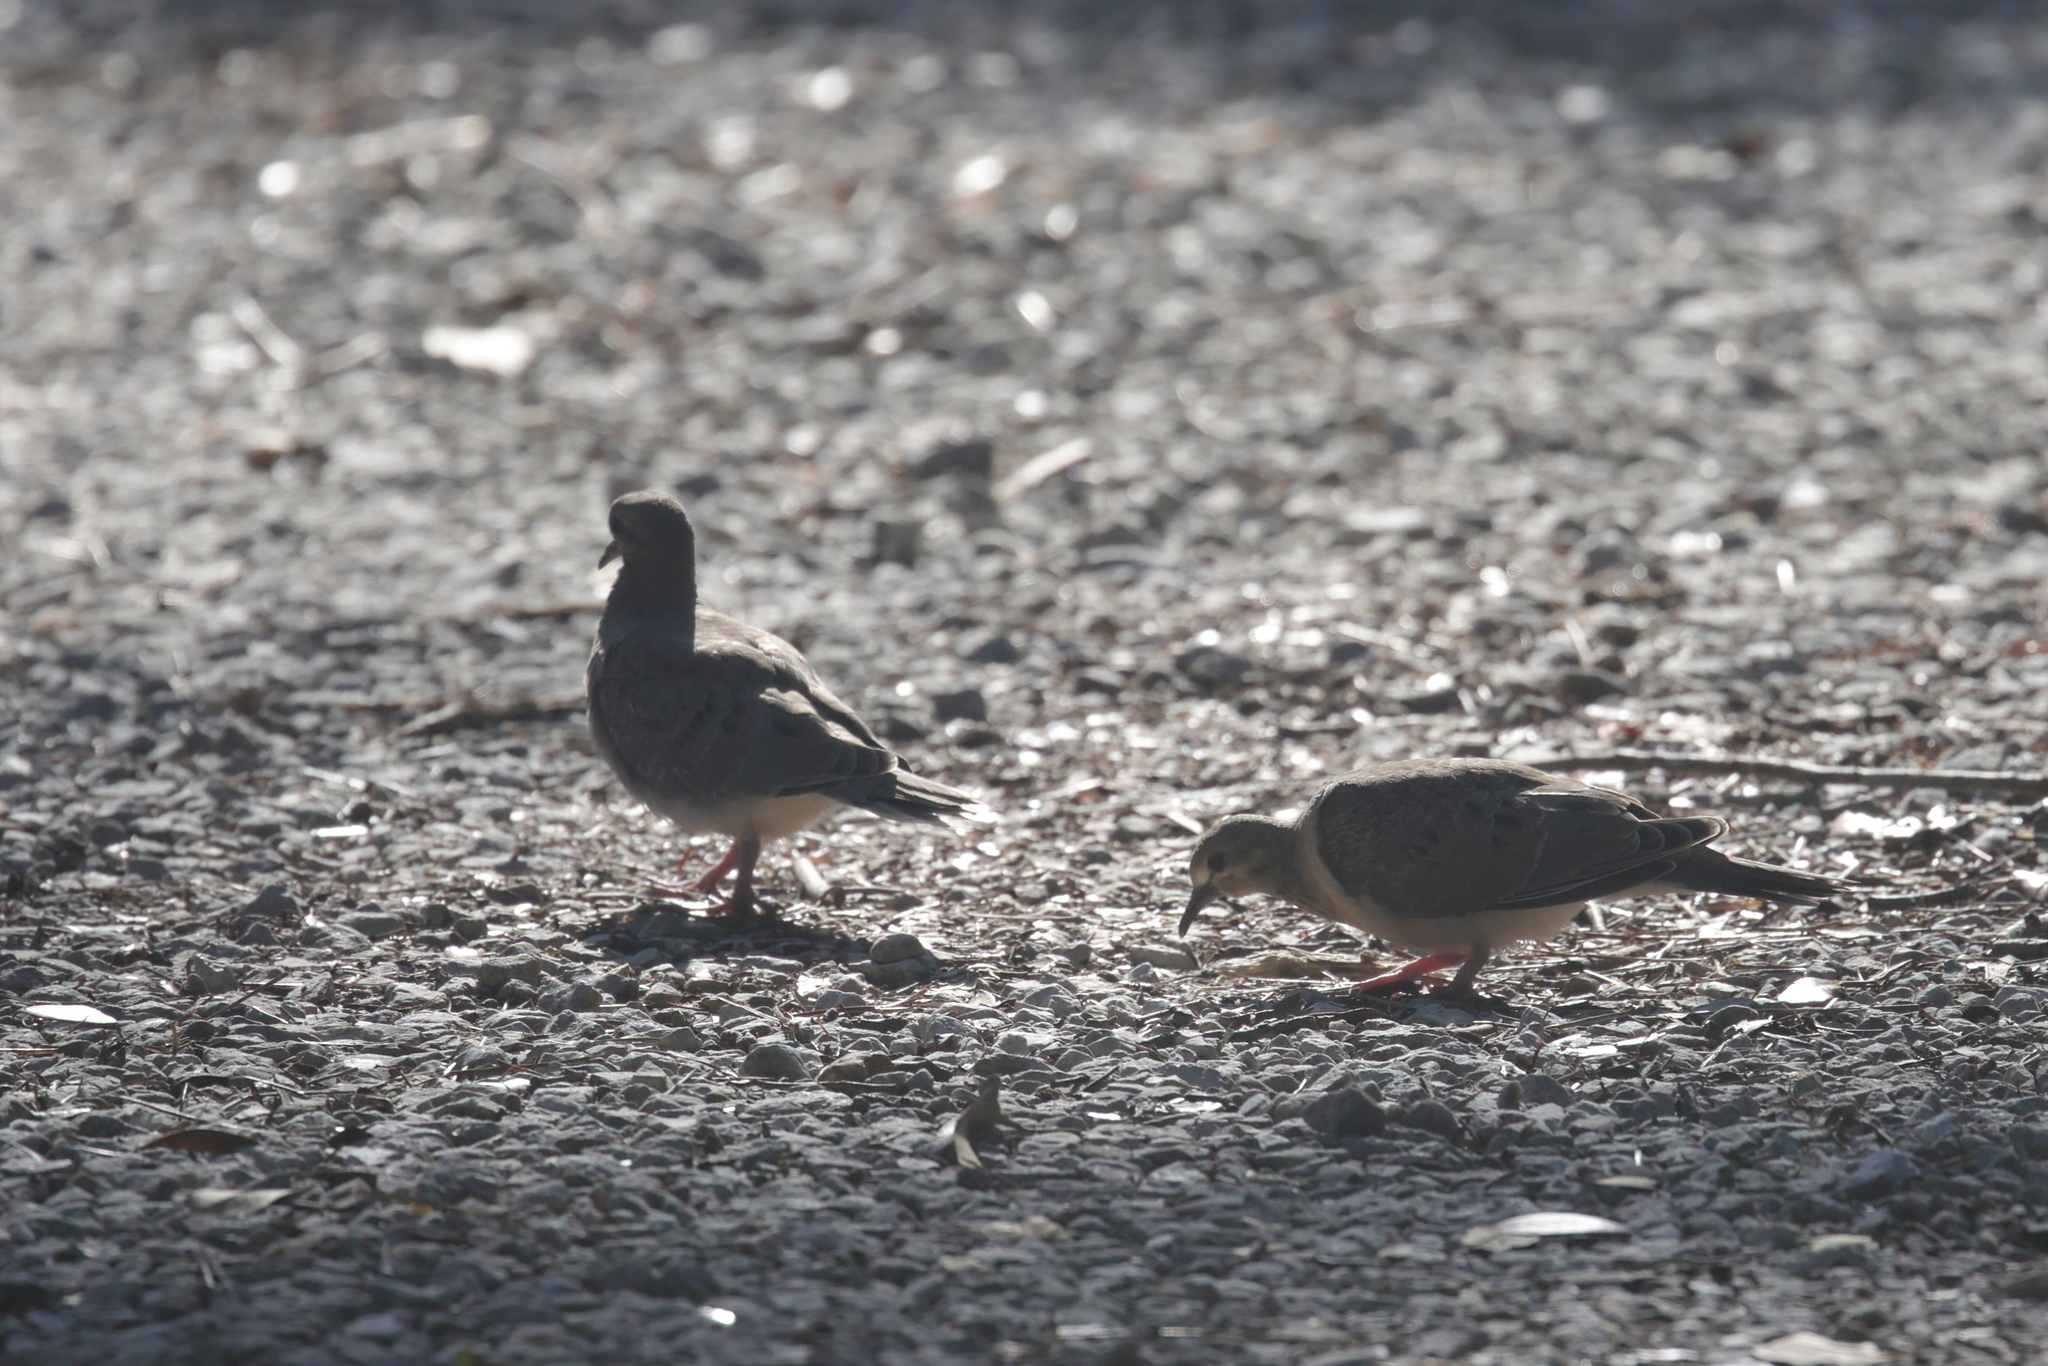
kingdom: Animalia
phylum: Chordata
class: Aves
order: Columbiformes
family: Columbidae
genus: Zenaida
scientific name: Zenaida macroura
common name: Mourning dove
